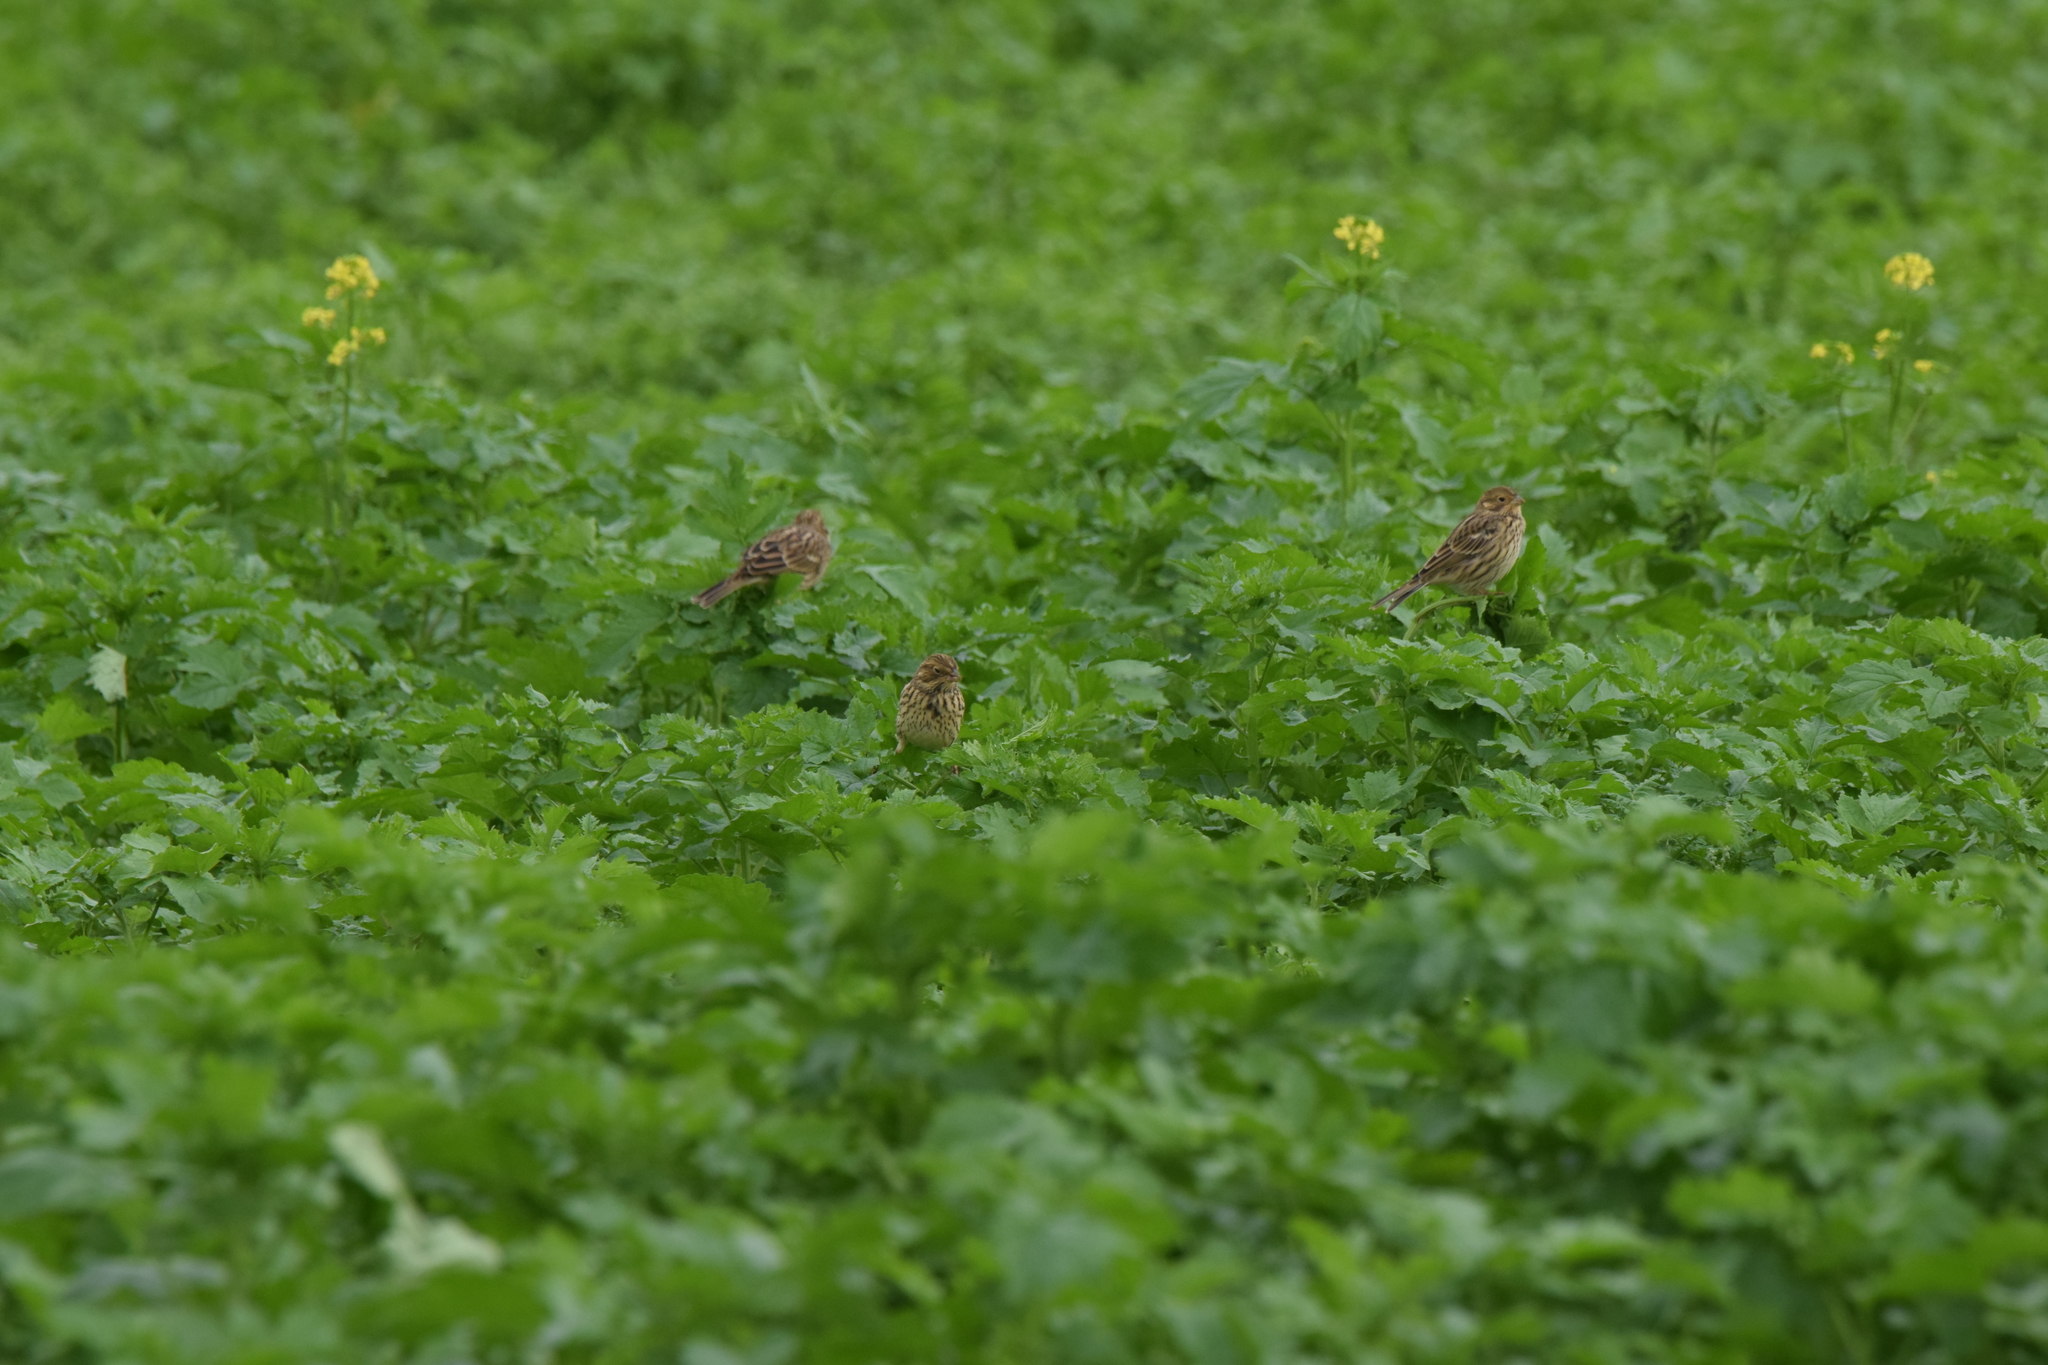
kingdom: Animalia
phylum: Chordata
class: Aves
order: Passeriformes
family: Emberizidae
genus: Emberiza
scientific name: Emberiza calandra
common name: Corn bunting
